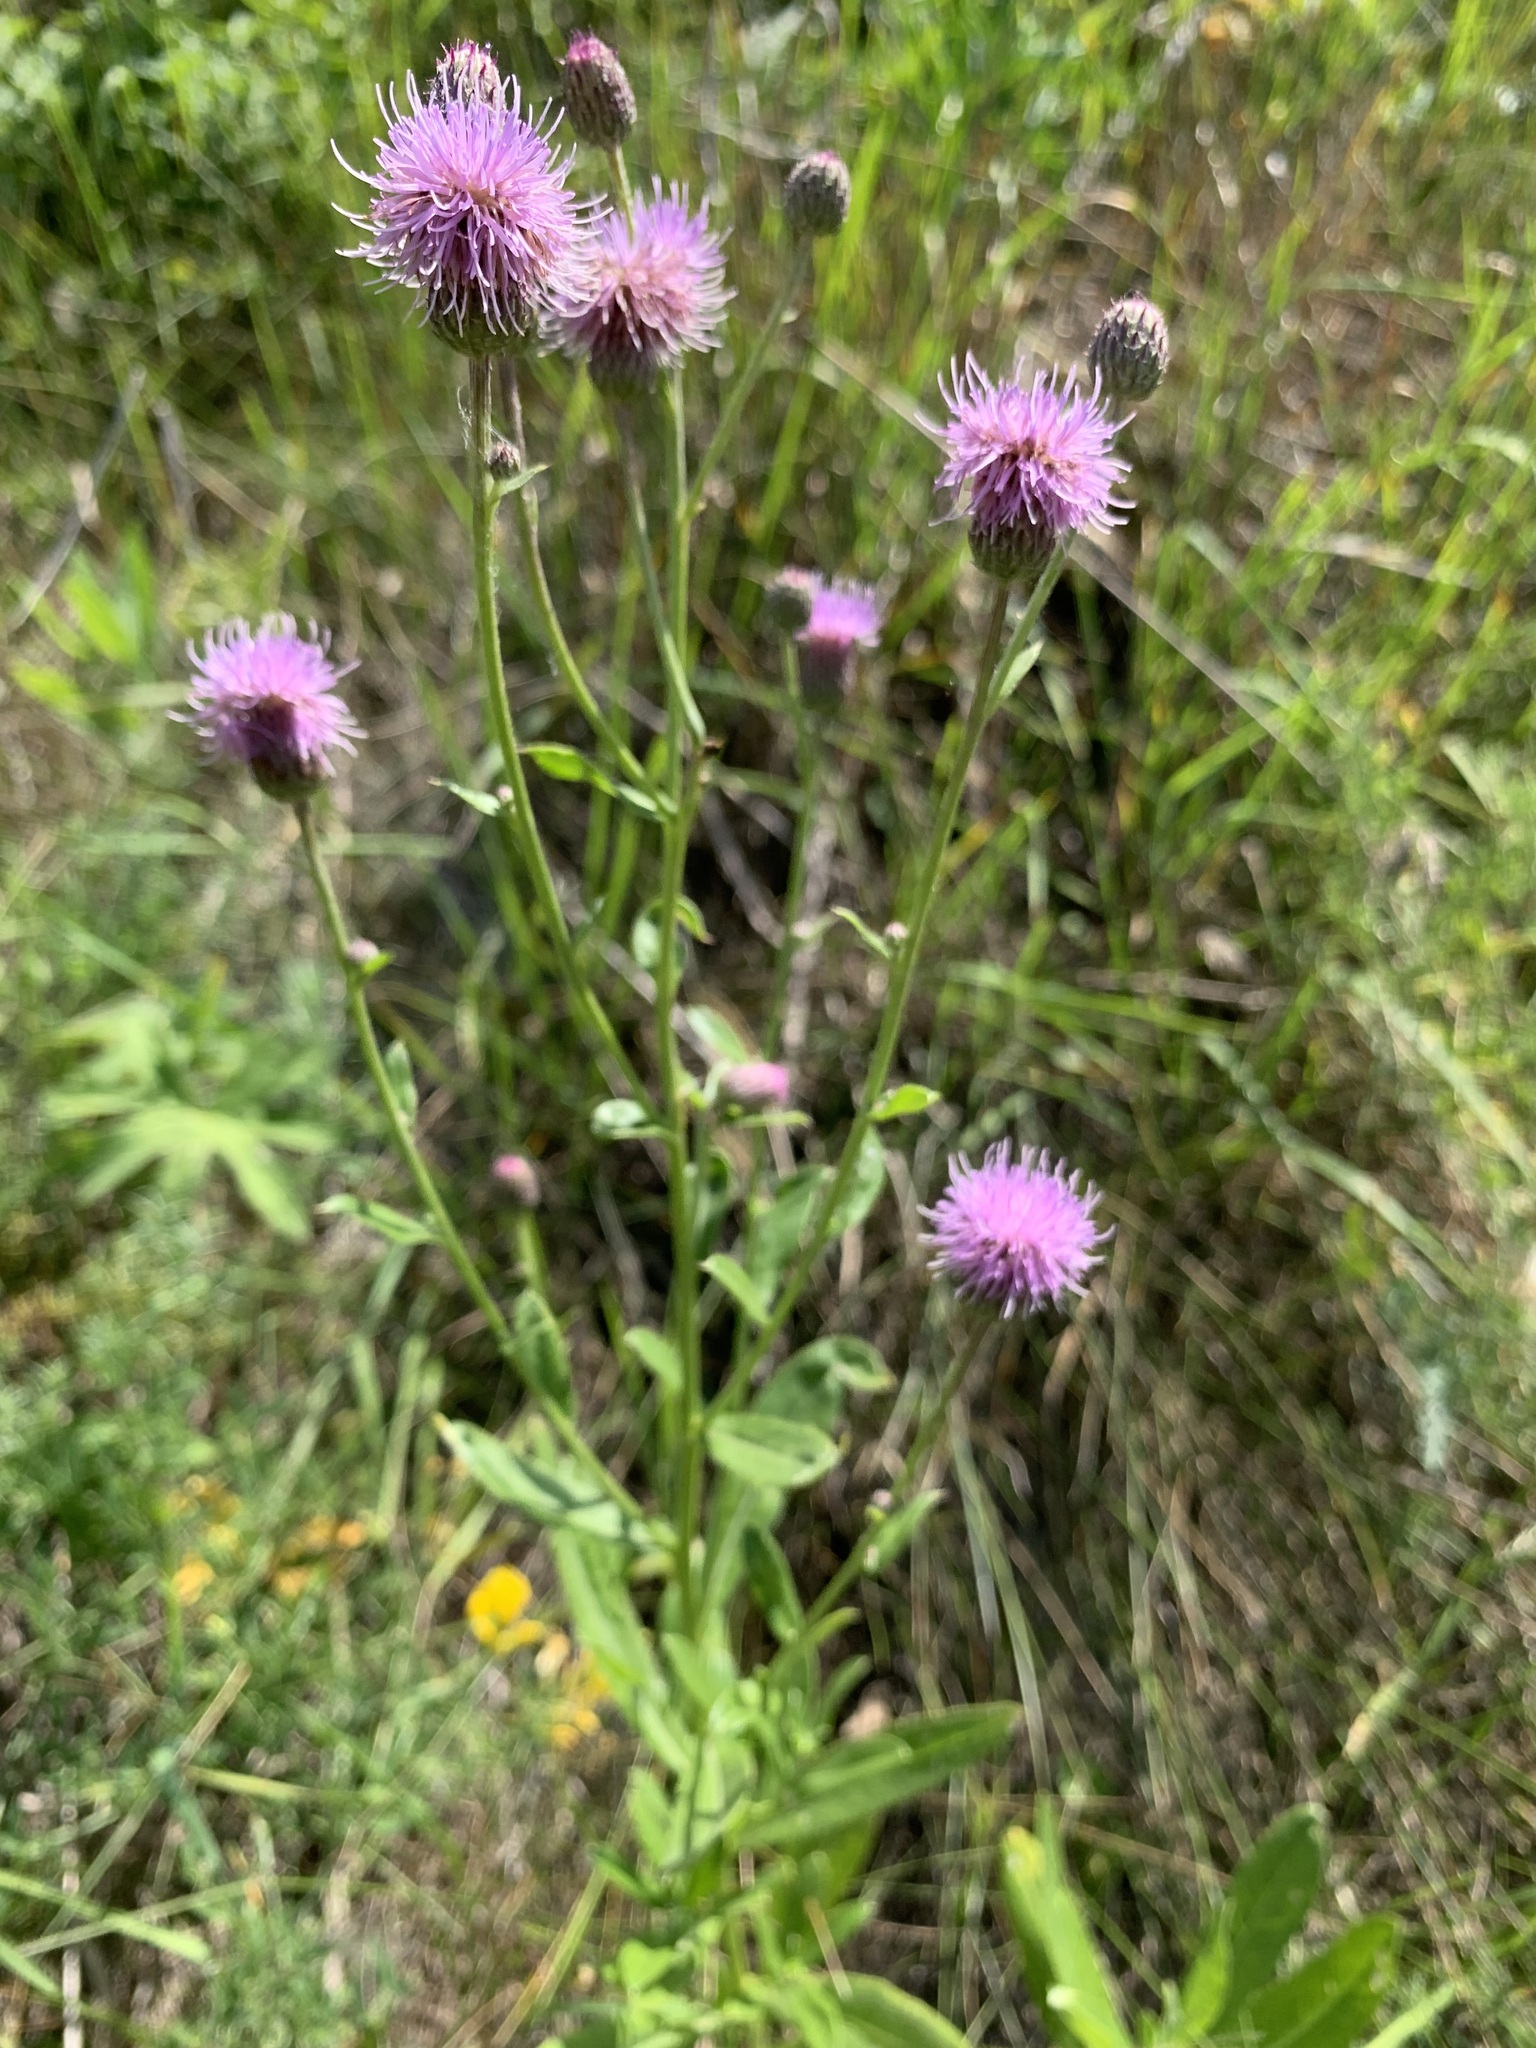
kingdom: Plantae
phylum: Tracheophyta
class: Magnoliopsida
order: Asterales
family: Asteraceae
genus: Cirsium
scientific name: Cirsium arvense
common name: Creeping thistle
